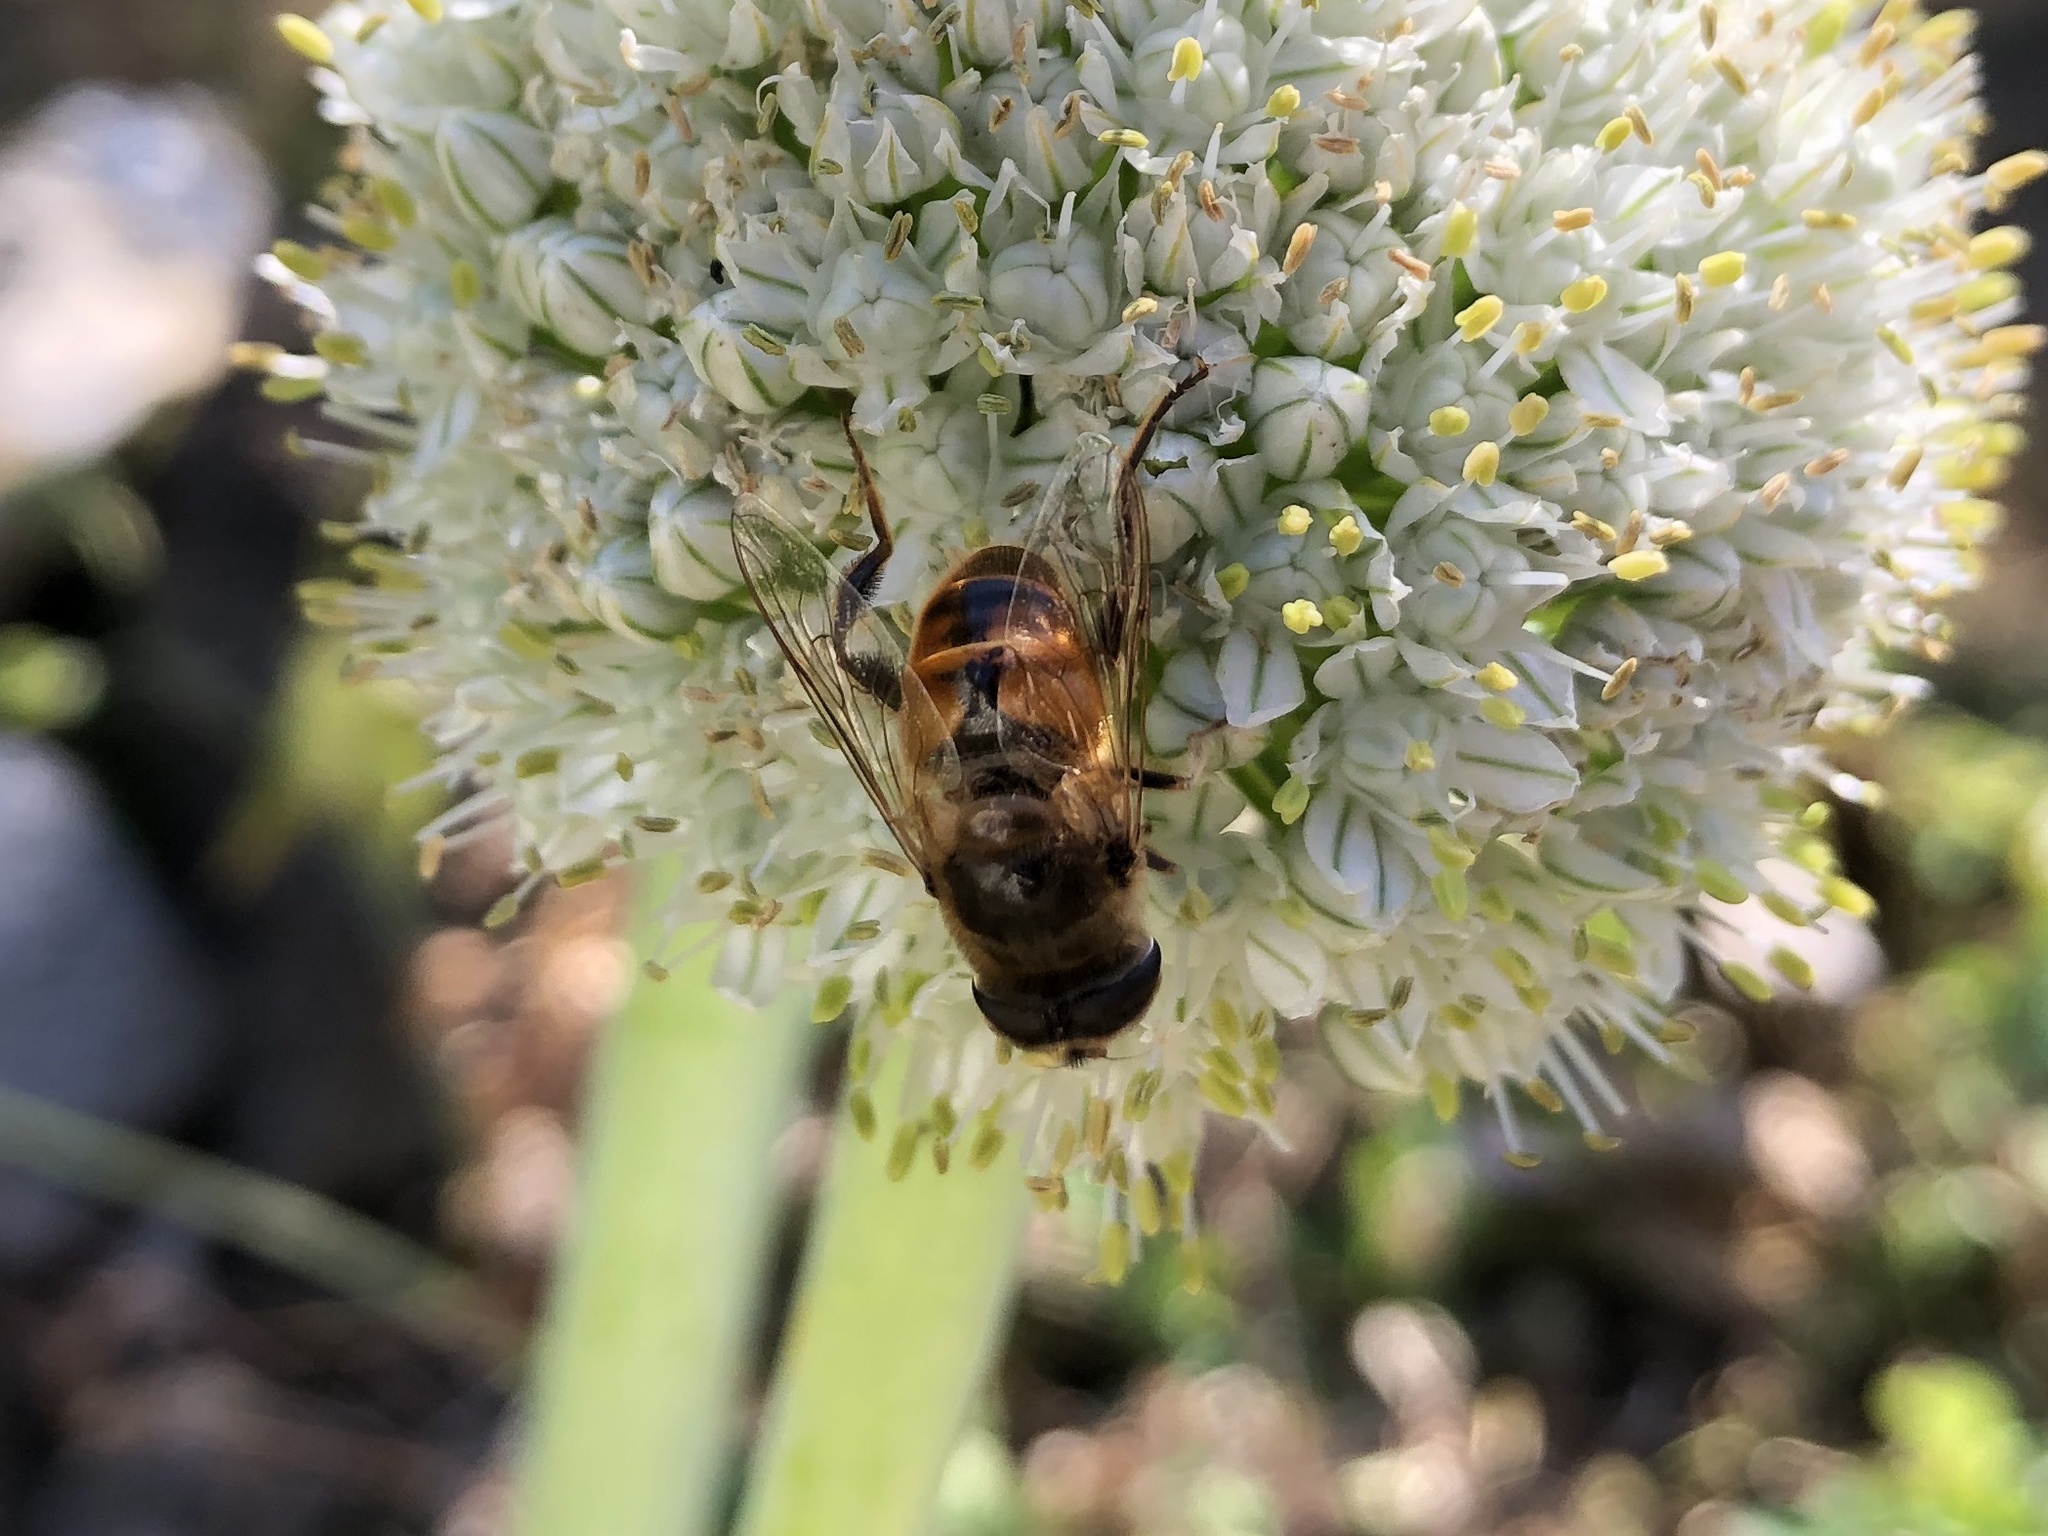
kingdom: Animalia
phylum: Arthropoda
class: Insecta
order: Diptera
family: Syrphidae
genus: Eristalis
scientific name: Eristalis tenax
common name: Drone fly
